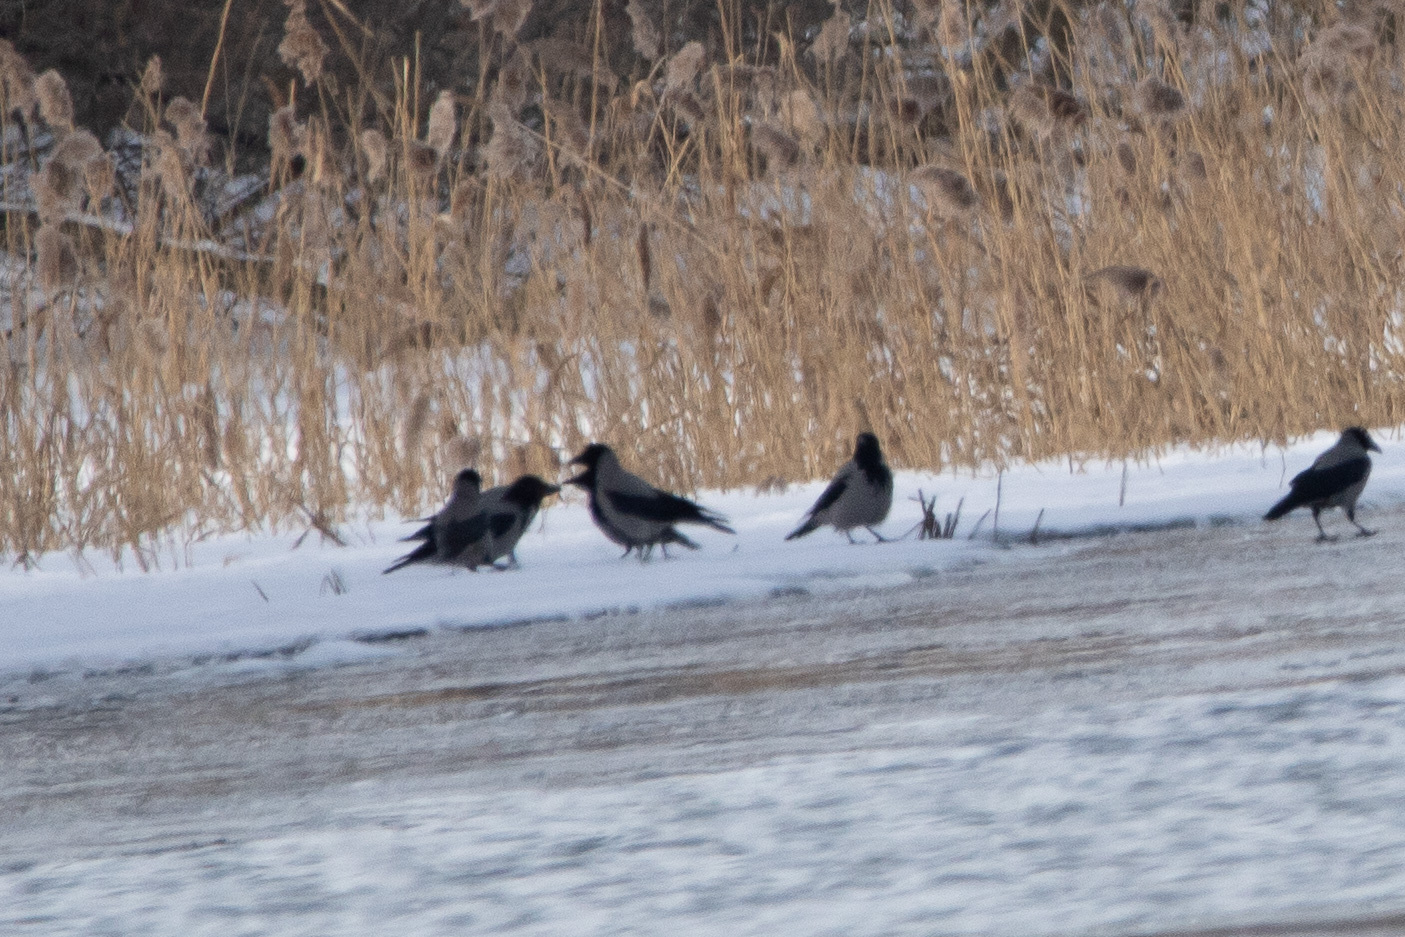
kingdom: Animalia
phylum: Chordata
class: Aves
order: Passeriformes
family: Corvidae
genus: Corvus
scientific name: Corvus cornix
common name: Hooded crow
